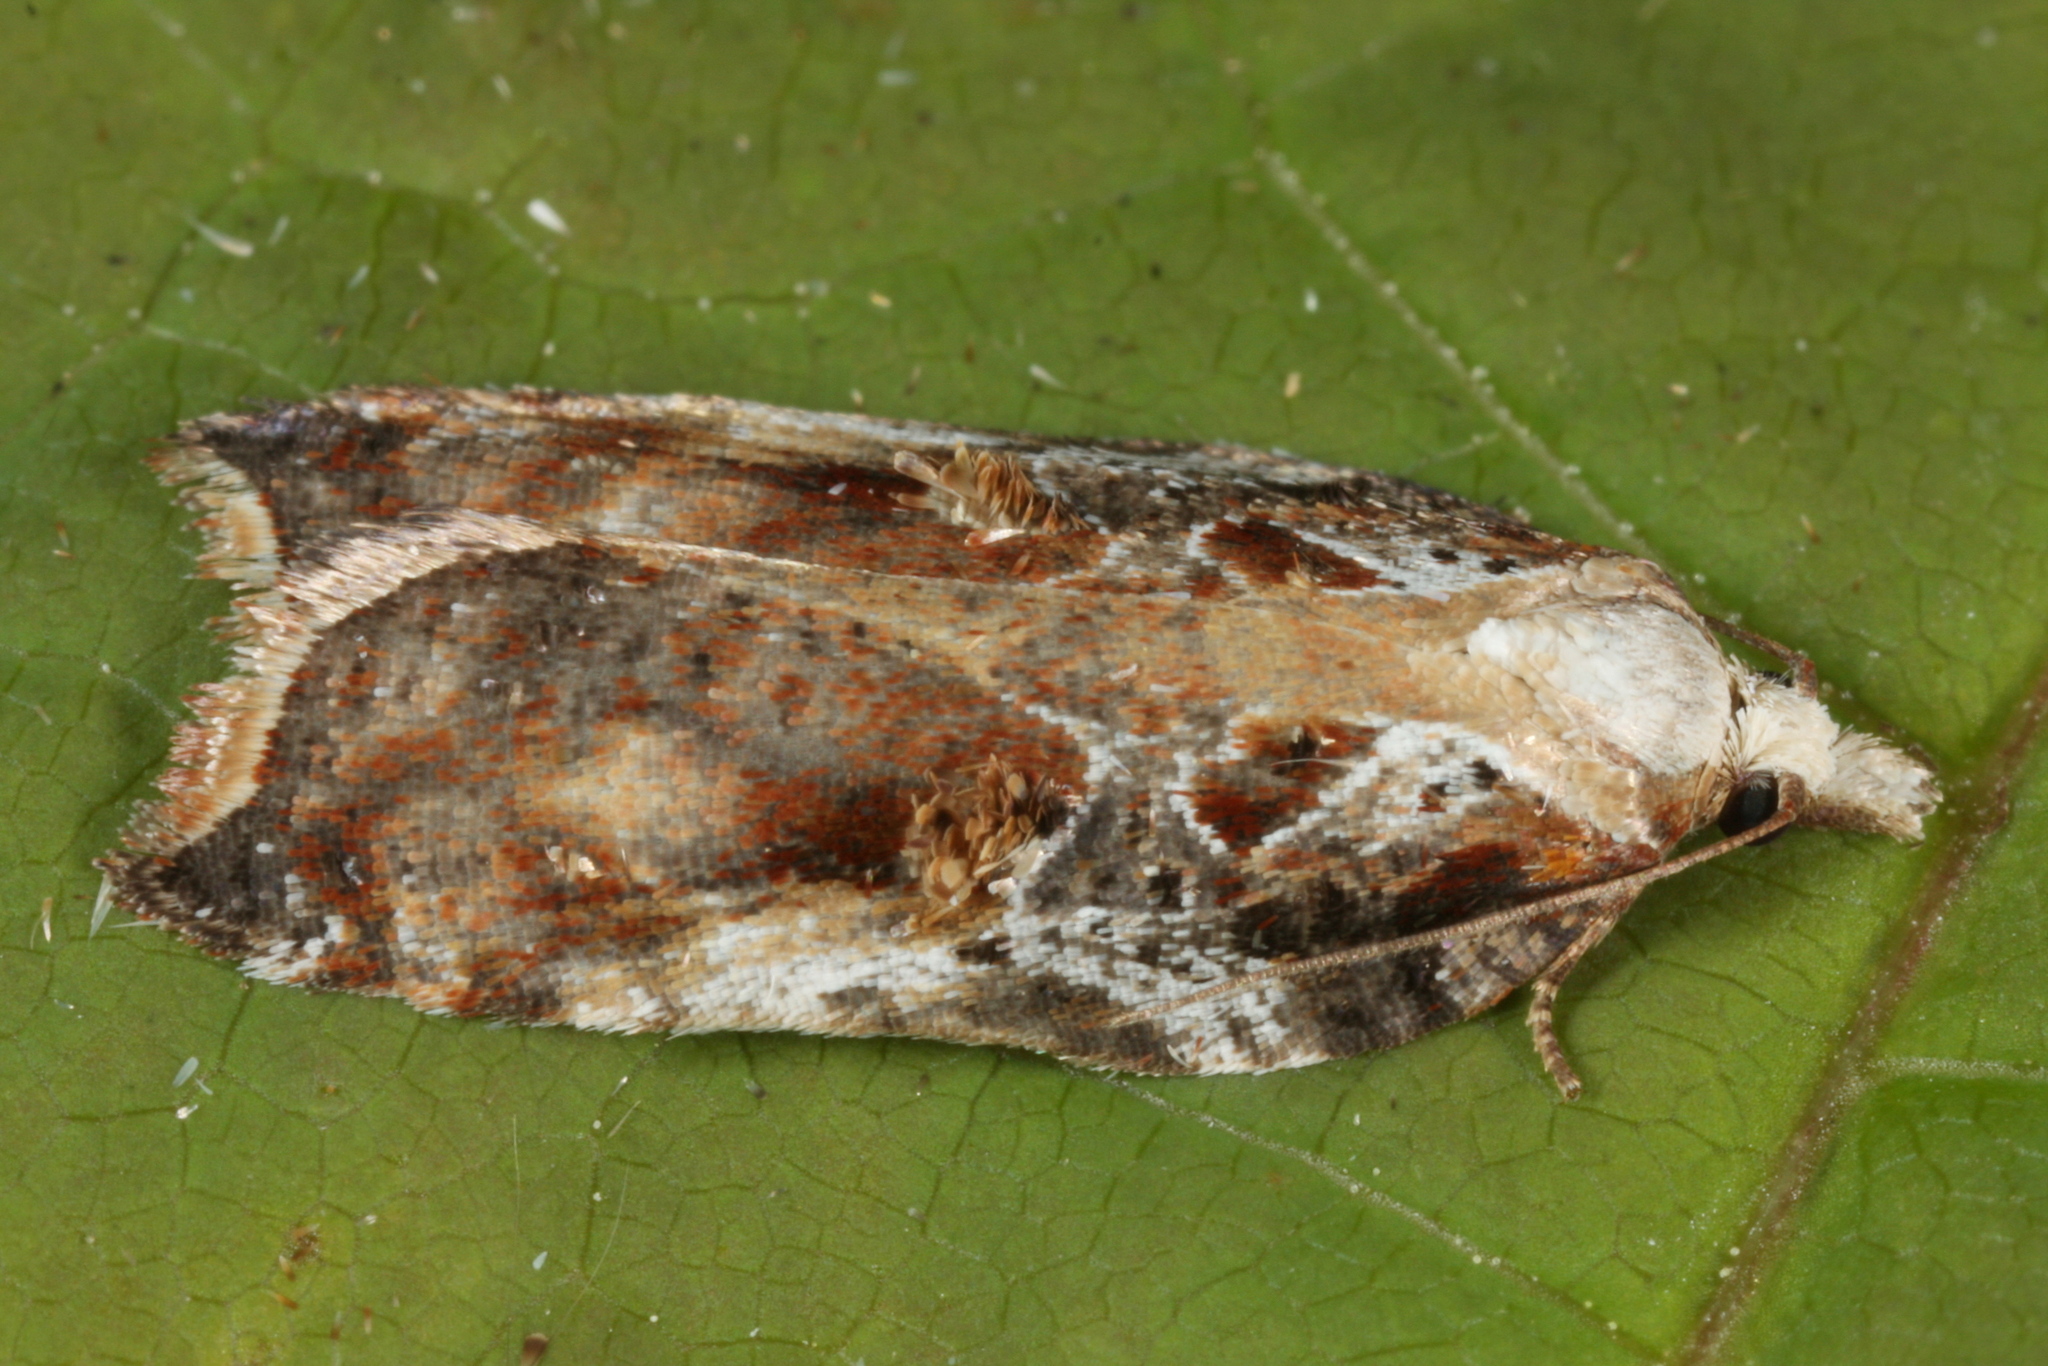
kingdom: Animalia
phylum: Arthropoda
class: Insecta
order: Lepidoptera
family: Tortricidae
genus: Acleris
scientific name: Acleris cristana
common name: Tufted button
